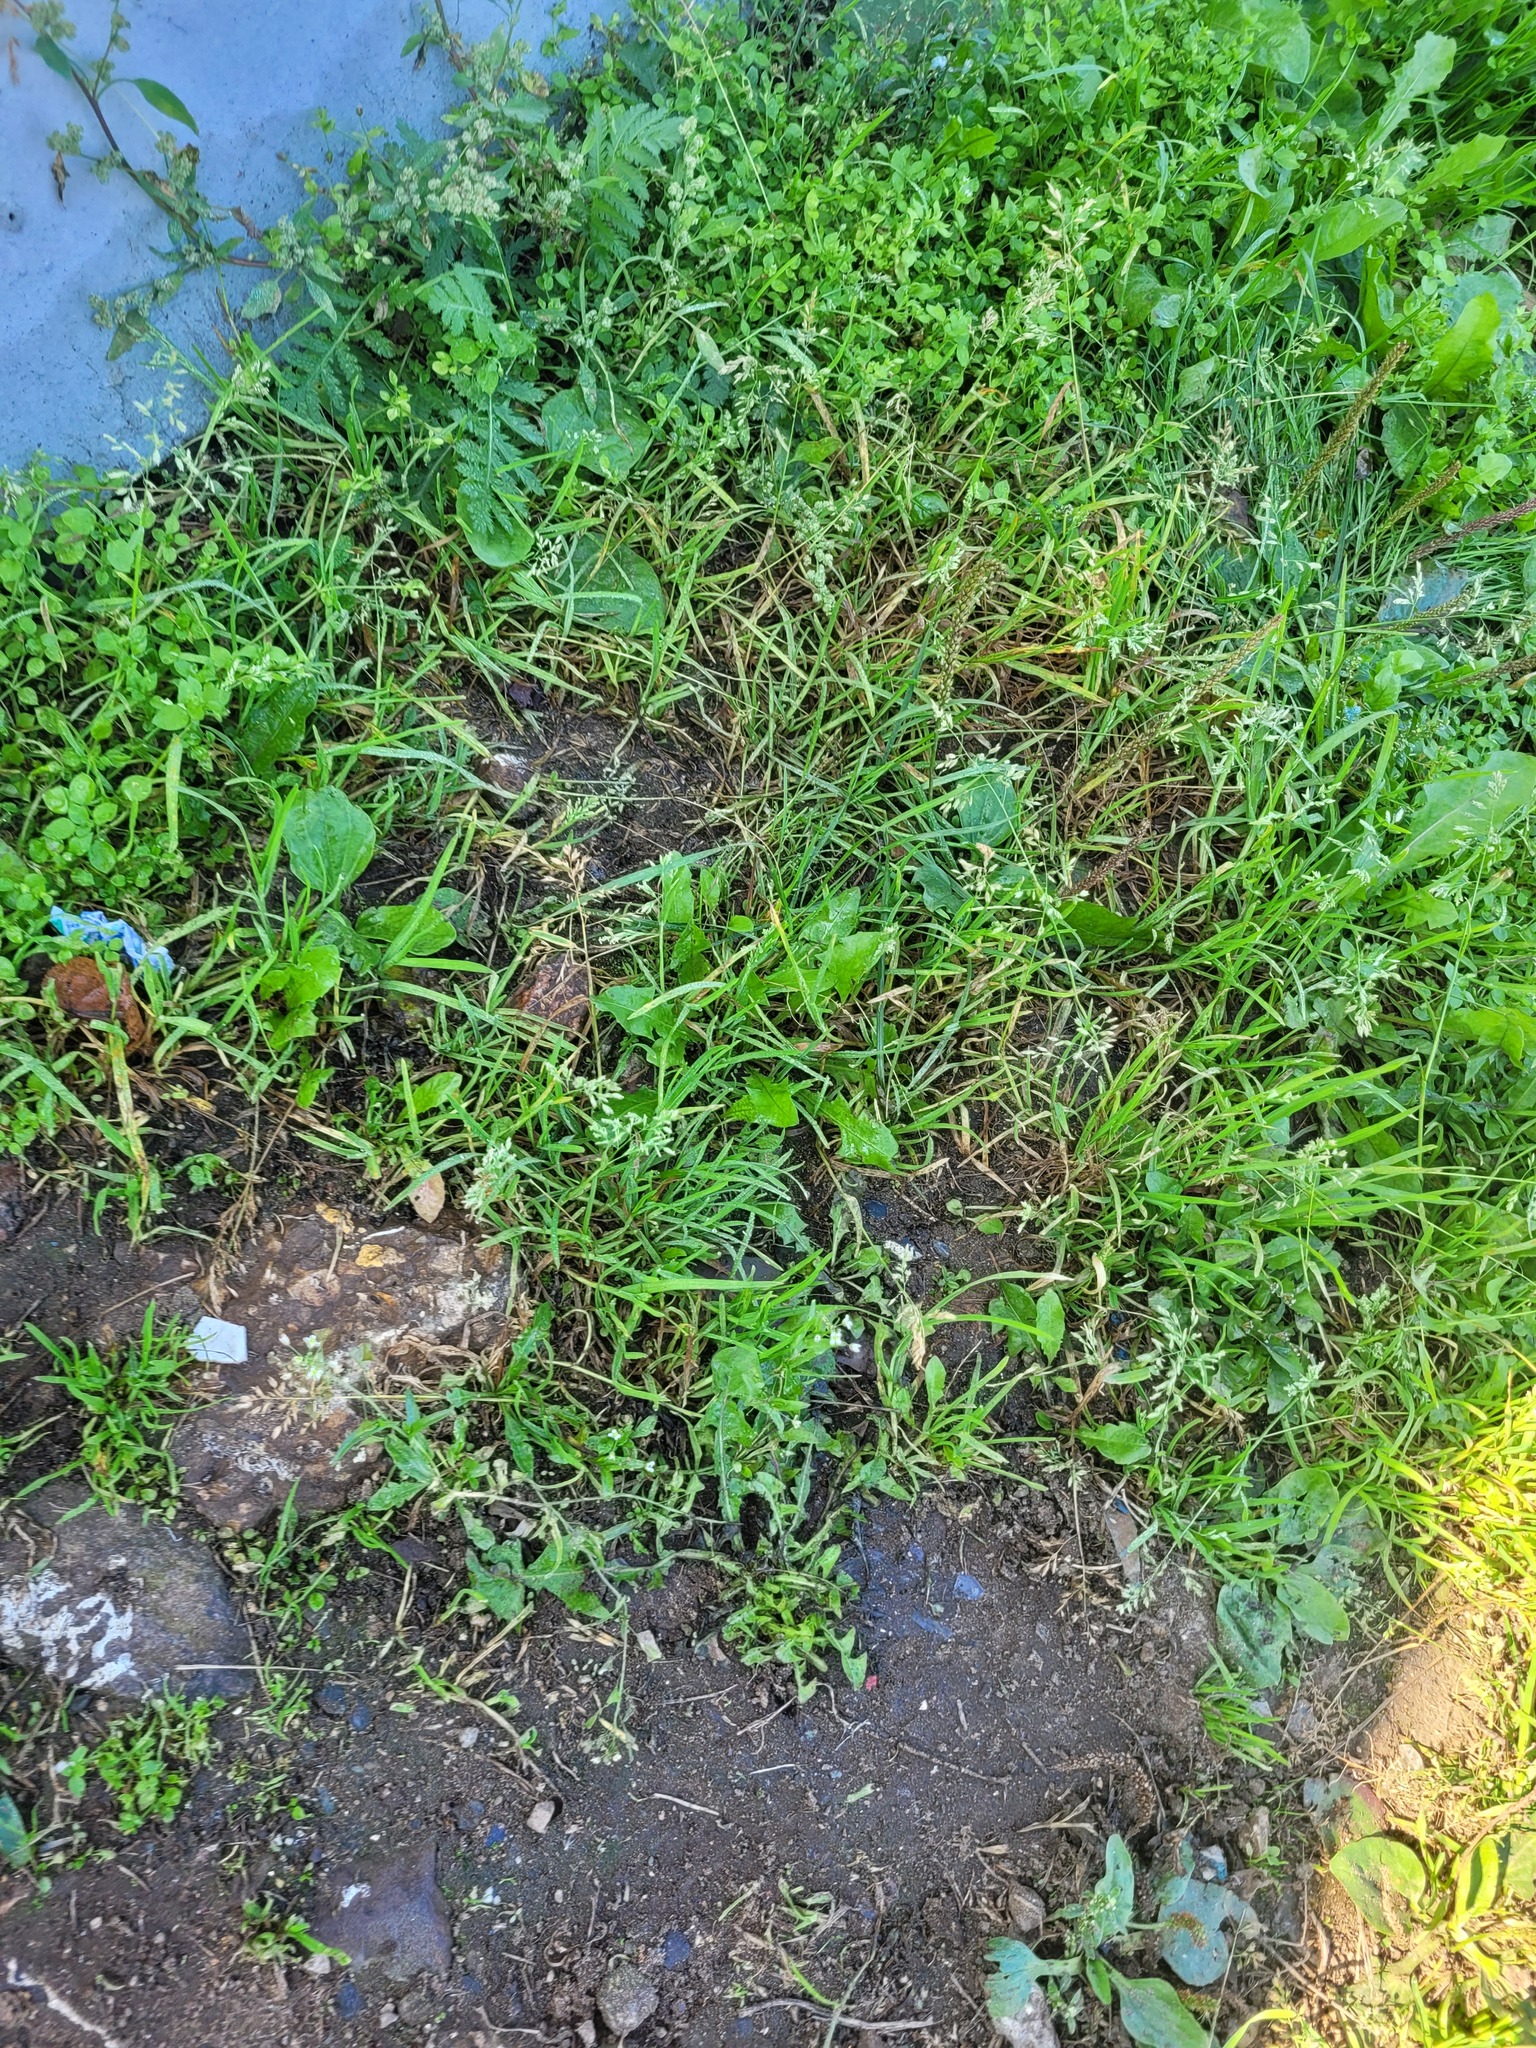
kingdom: Plantae
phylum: Tracheophyta
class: Liliopsida
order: Poales
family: Poaceae
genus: Poa
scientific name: Poa annua
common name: Annual bluegrass
